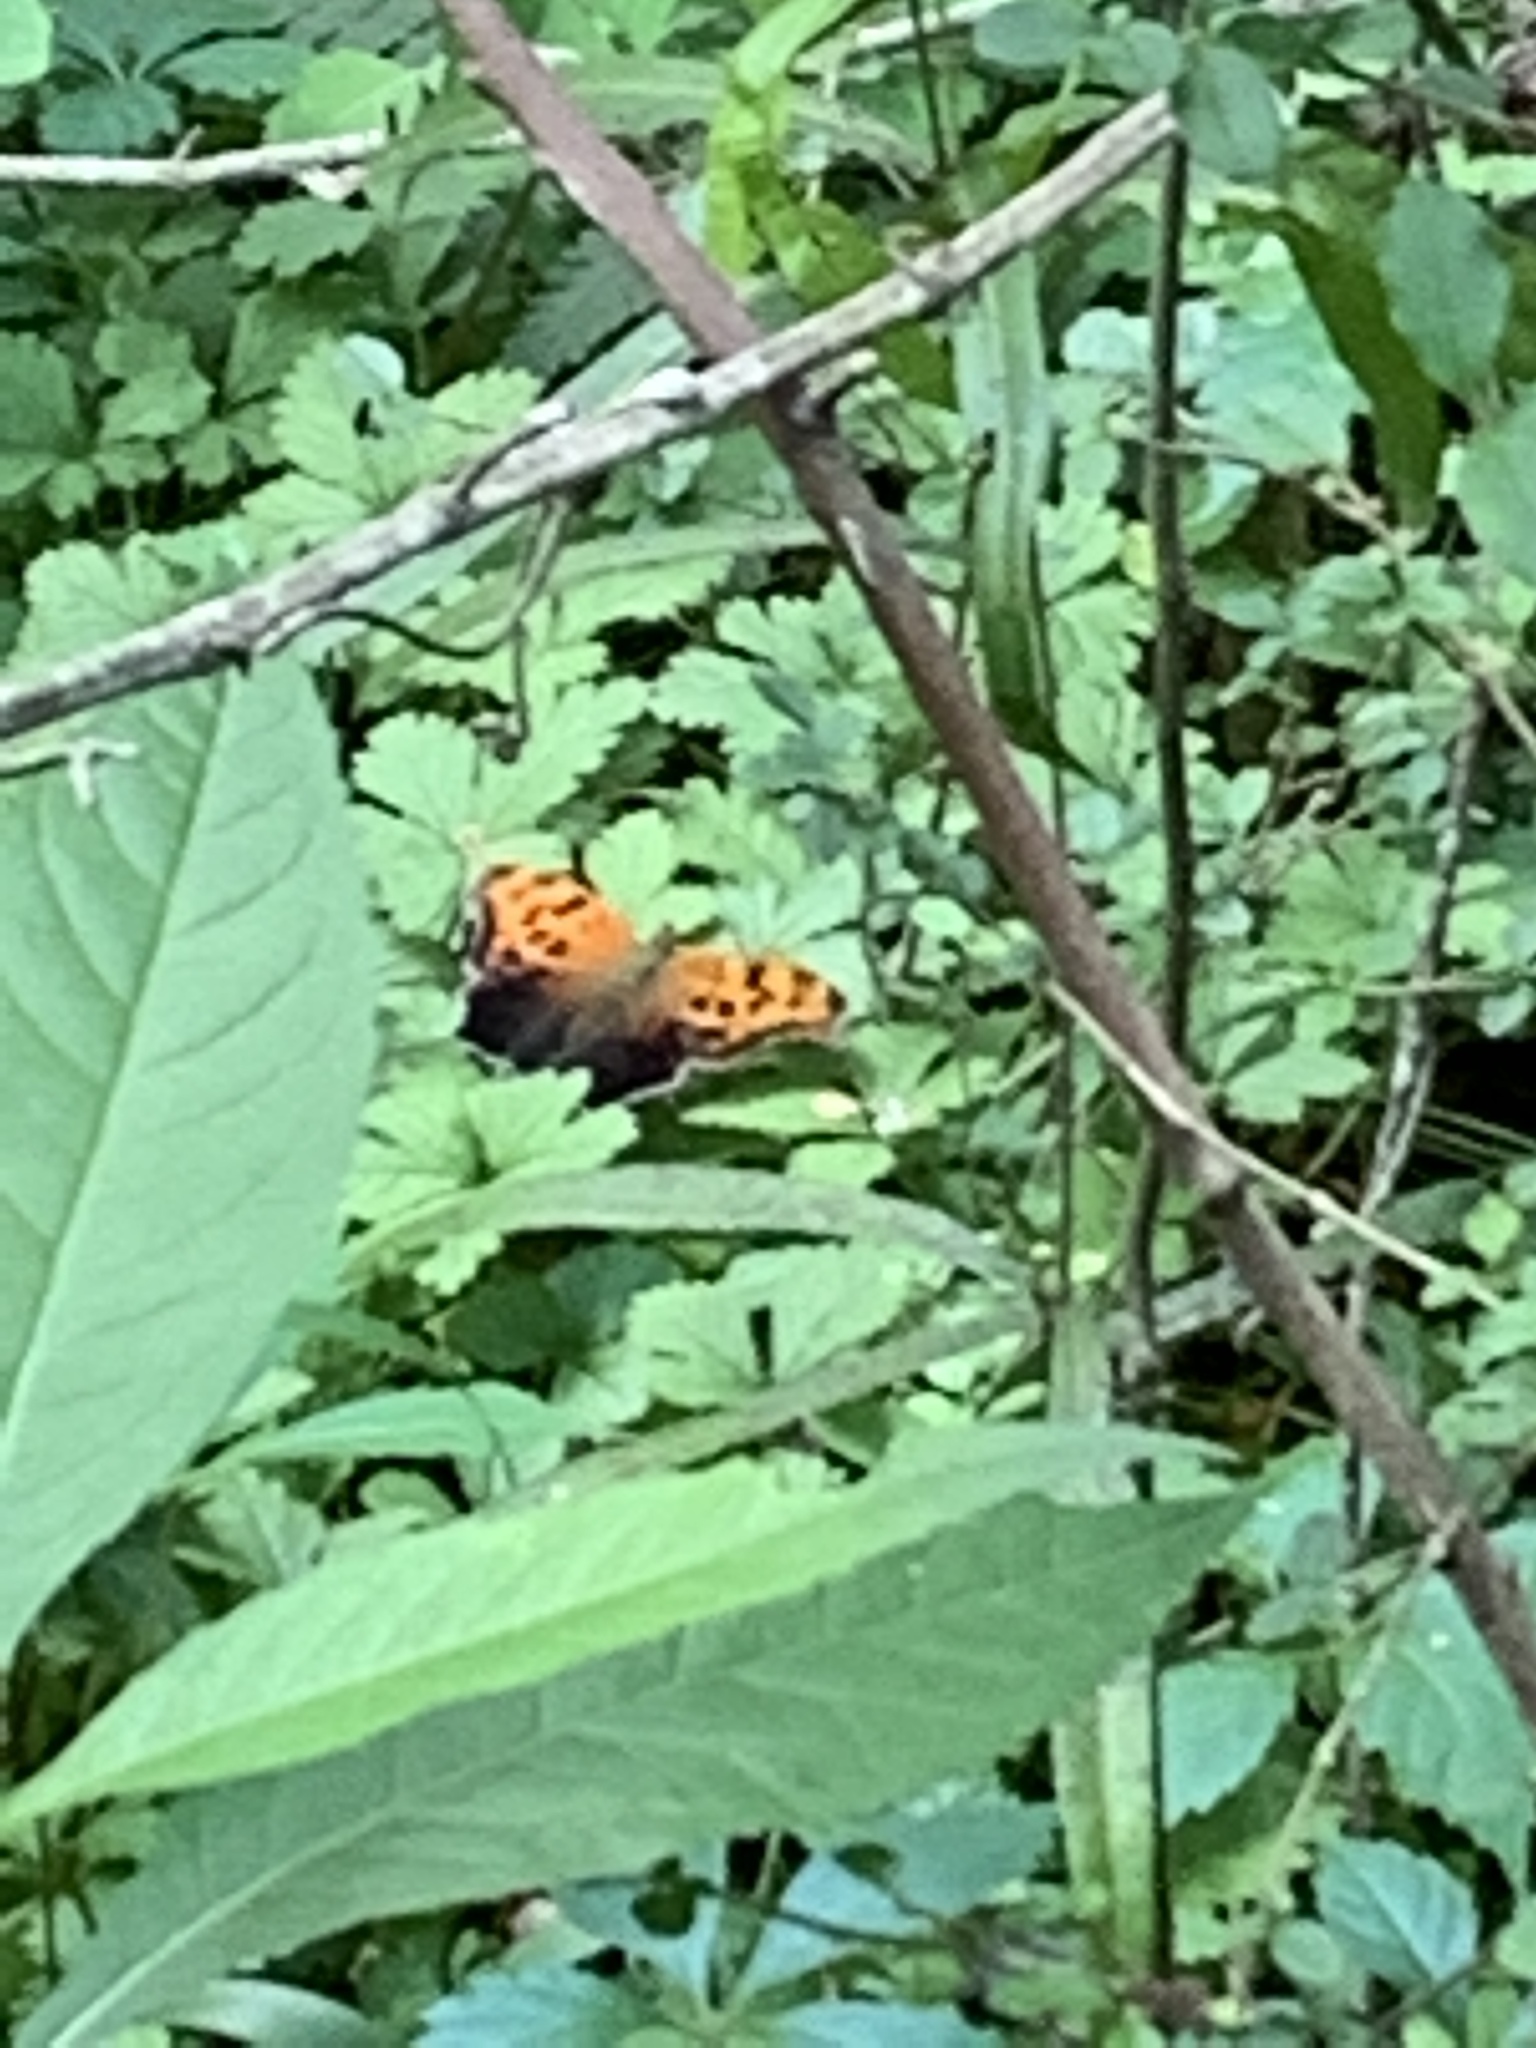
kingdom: Animalia
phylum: Arthropoda
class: Insecta
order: Lepidoptera
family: Nymphalidae
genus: Polygonia
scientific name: Polygonia interrogationis
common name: Question mark
